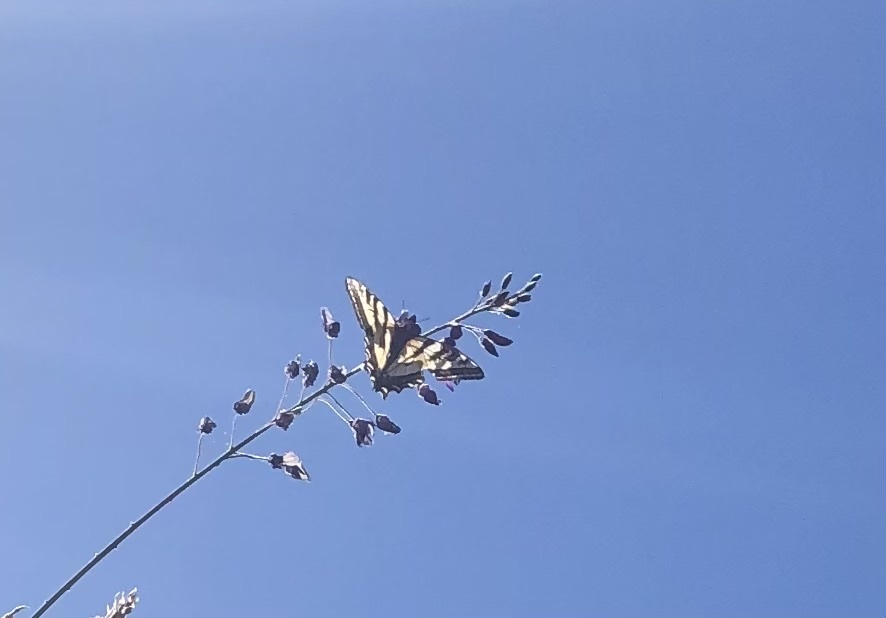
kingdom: Animalia
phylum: Arthropoda
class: Insecta
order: Lepidoptera
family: Papilionidae
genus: Papilio
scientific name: Papilio rutulus
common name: Western tiger swallowtail
